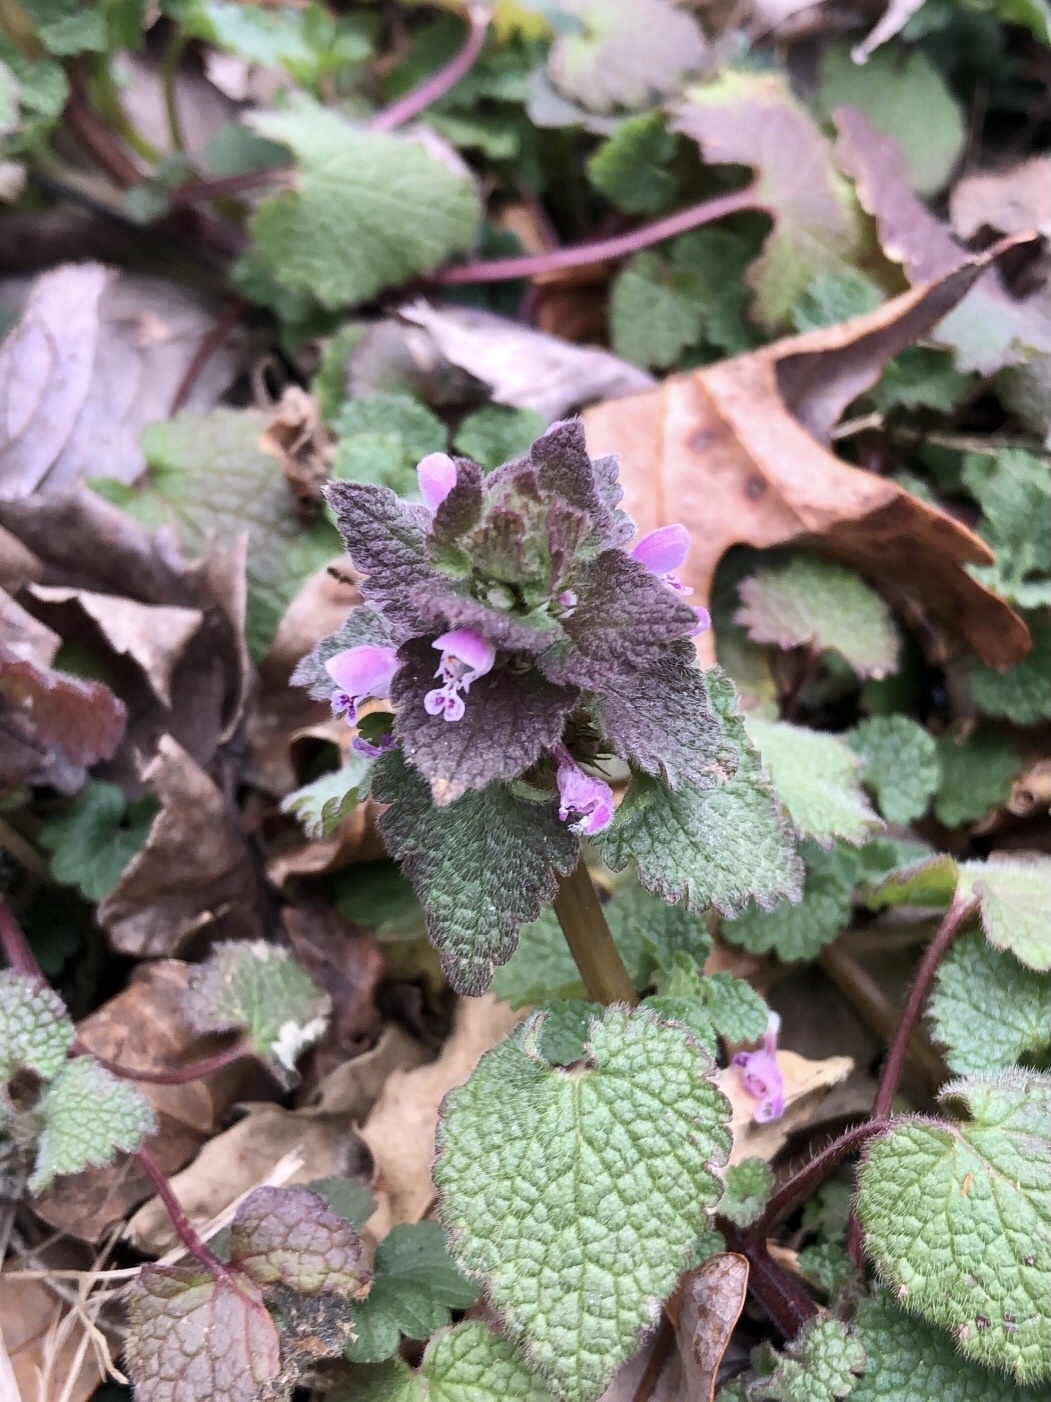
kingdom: Plantae
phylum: Tracheophyta
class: Magnoliopsida
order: Lamiales
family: Lamiaceae
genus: Lamium
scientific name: Lamium purpureum
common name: Red dead-nettle
